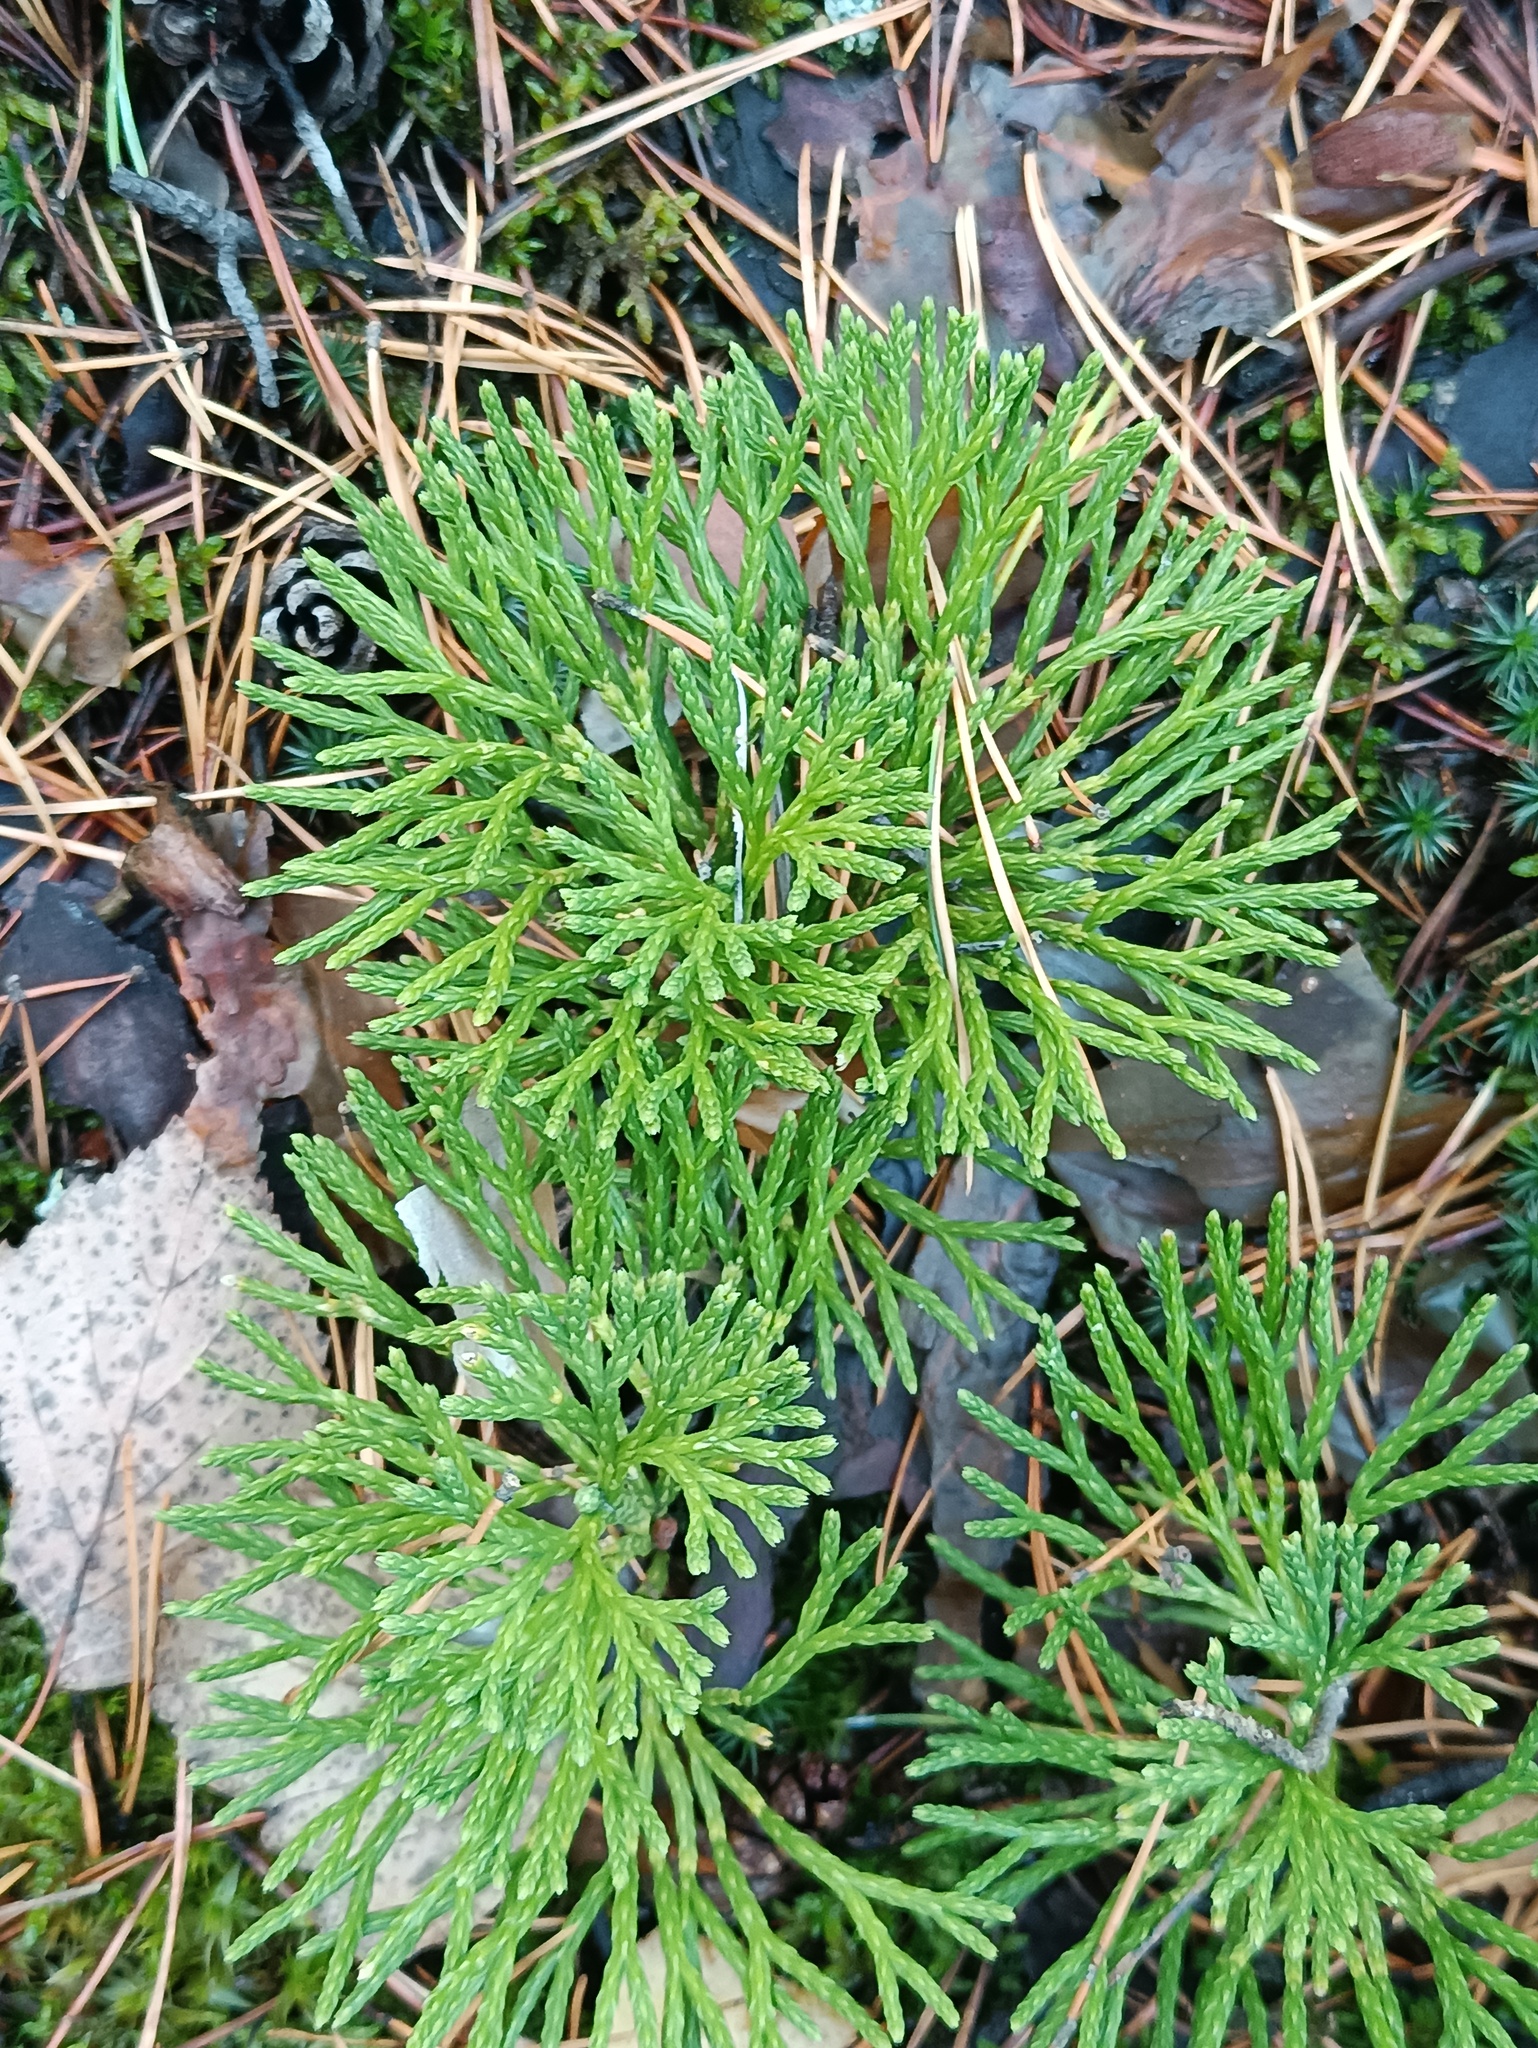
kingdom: Plantae
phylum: Tracheophyta
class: Lycopodiopsida
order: Lycopodiales
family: Lycopodiaceae
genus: Diphasiastrum
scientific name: Diphasiastrum complanatum
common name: Northern running-pine
